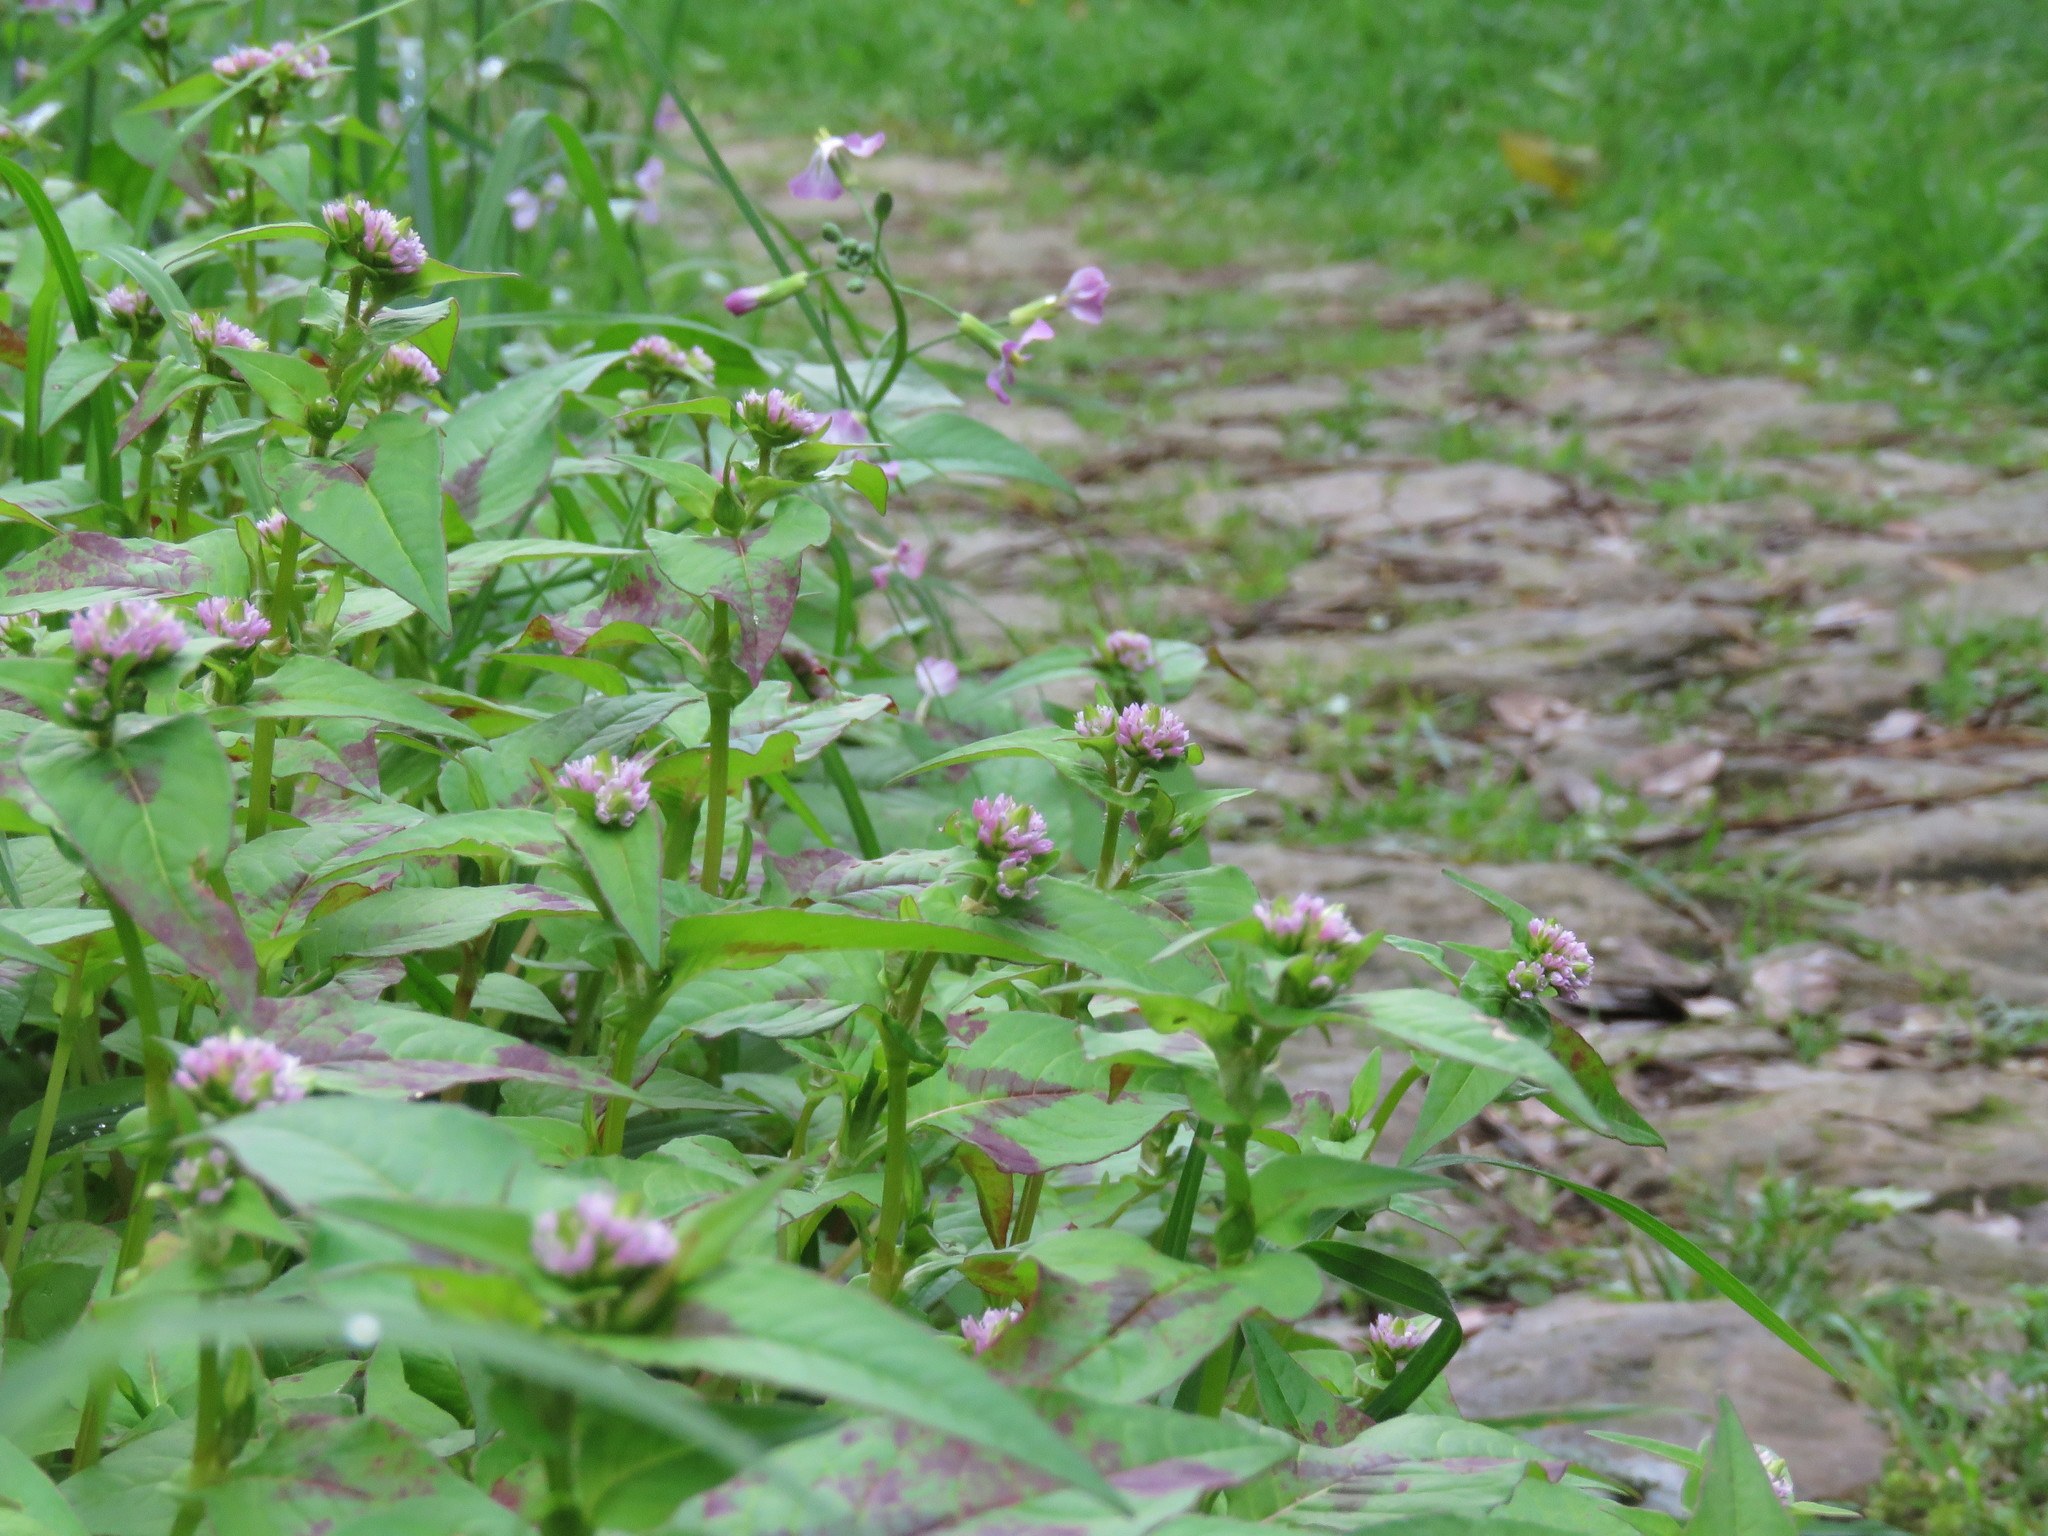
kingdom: Plantae
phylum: Tracheophyta
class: Magnoliopsida
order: Caryophyllales
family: Polygonaceae
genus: Persicaria
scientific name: Persicaria nepalensis
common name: Nepal persicaria
